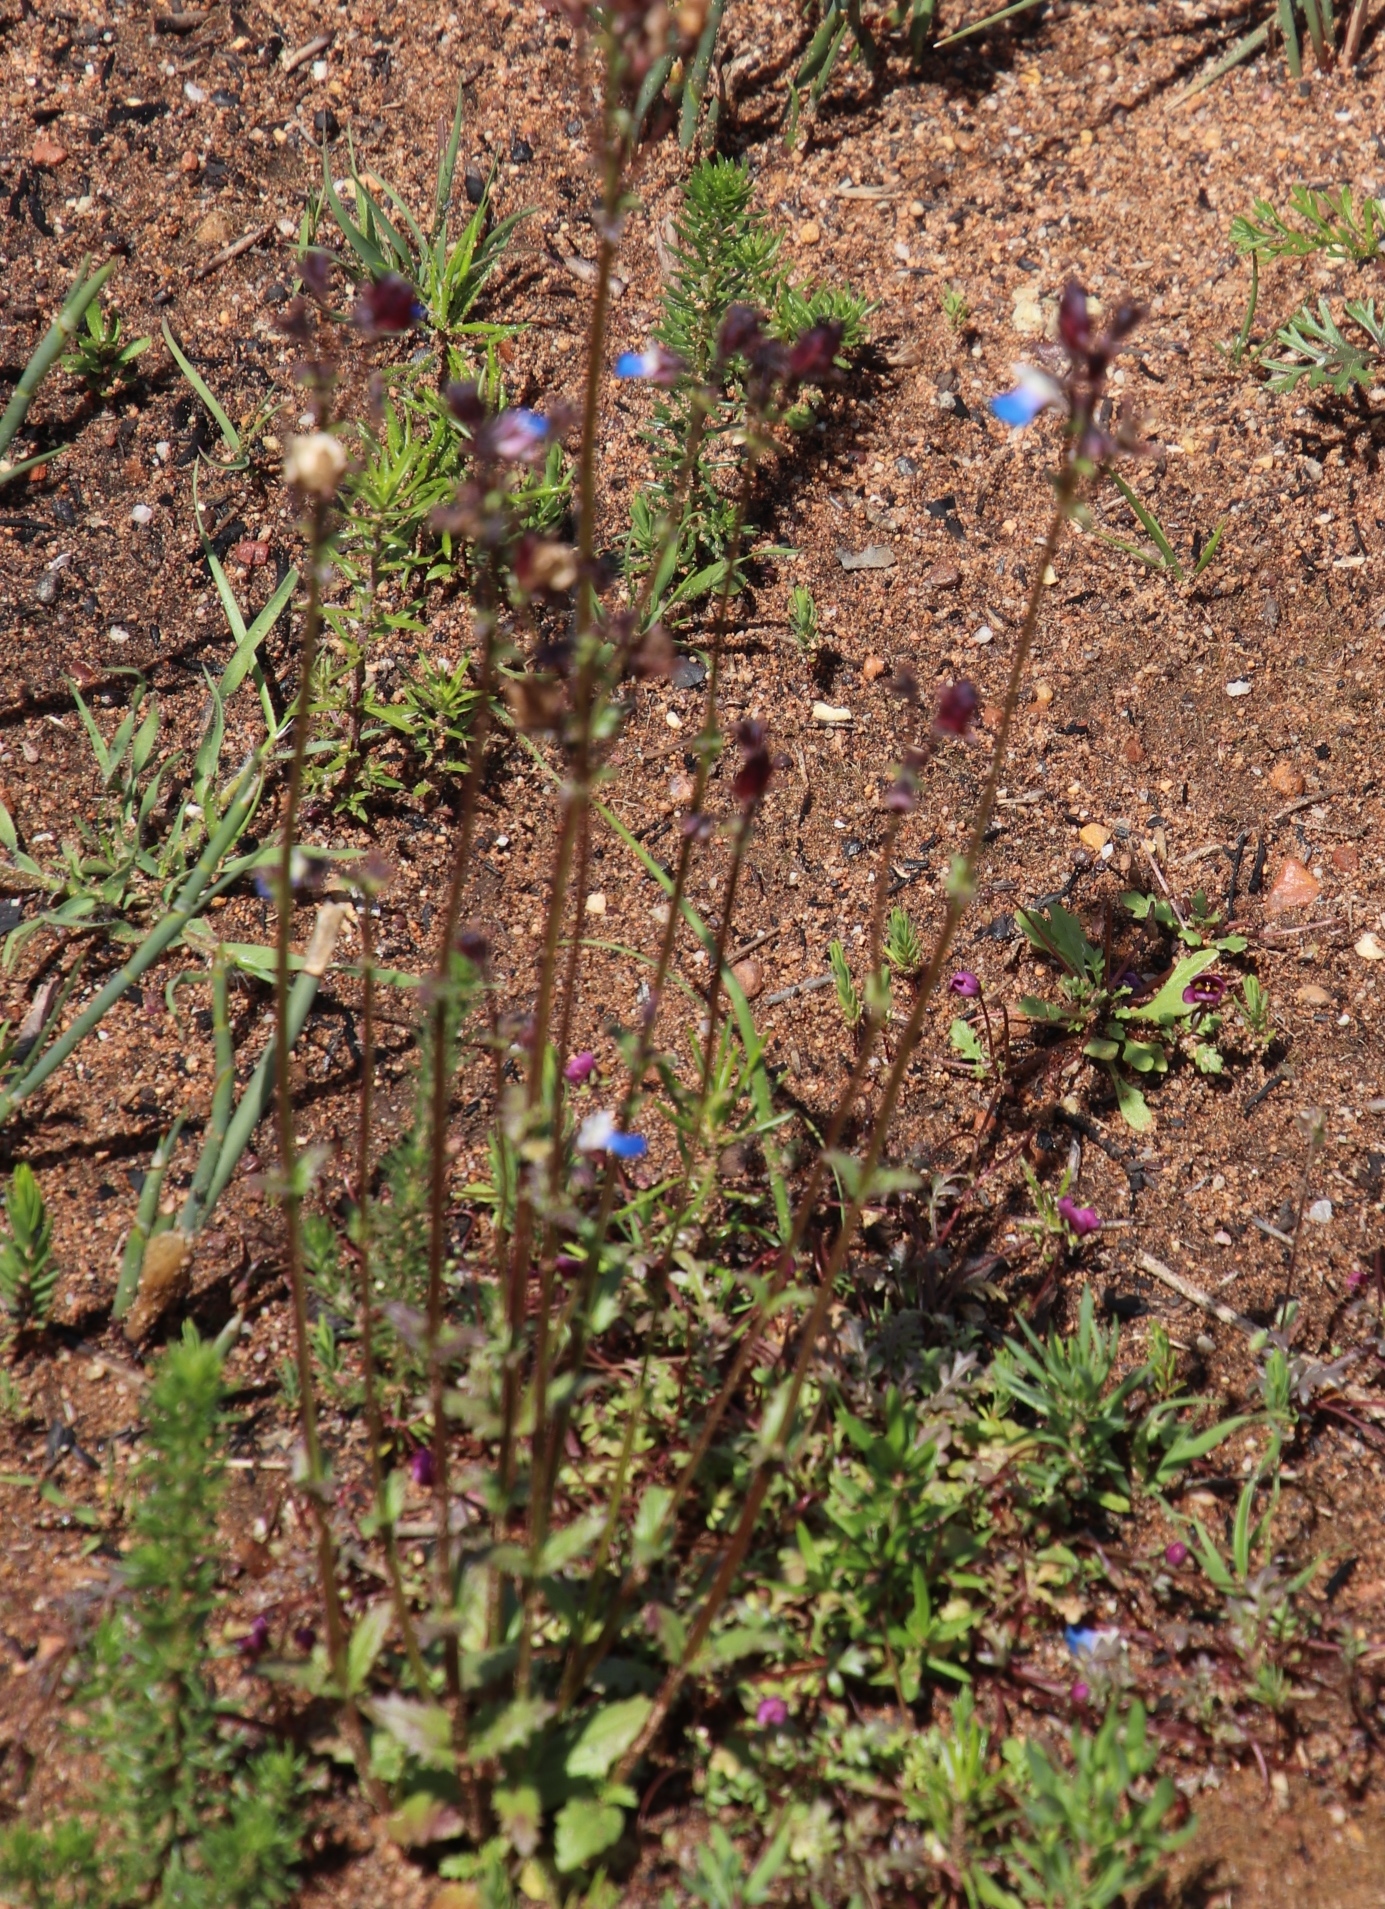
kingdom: Plantae
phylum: Tracheophyta
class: Magnoliopsida
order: Lamiales
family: Scrophulariaceae
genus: Nemesia
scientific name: Nemesia barbata
